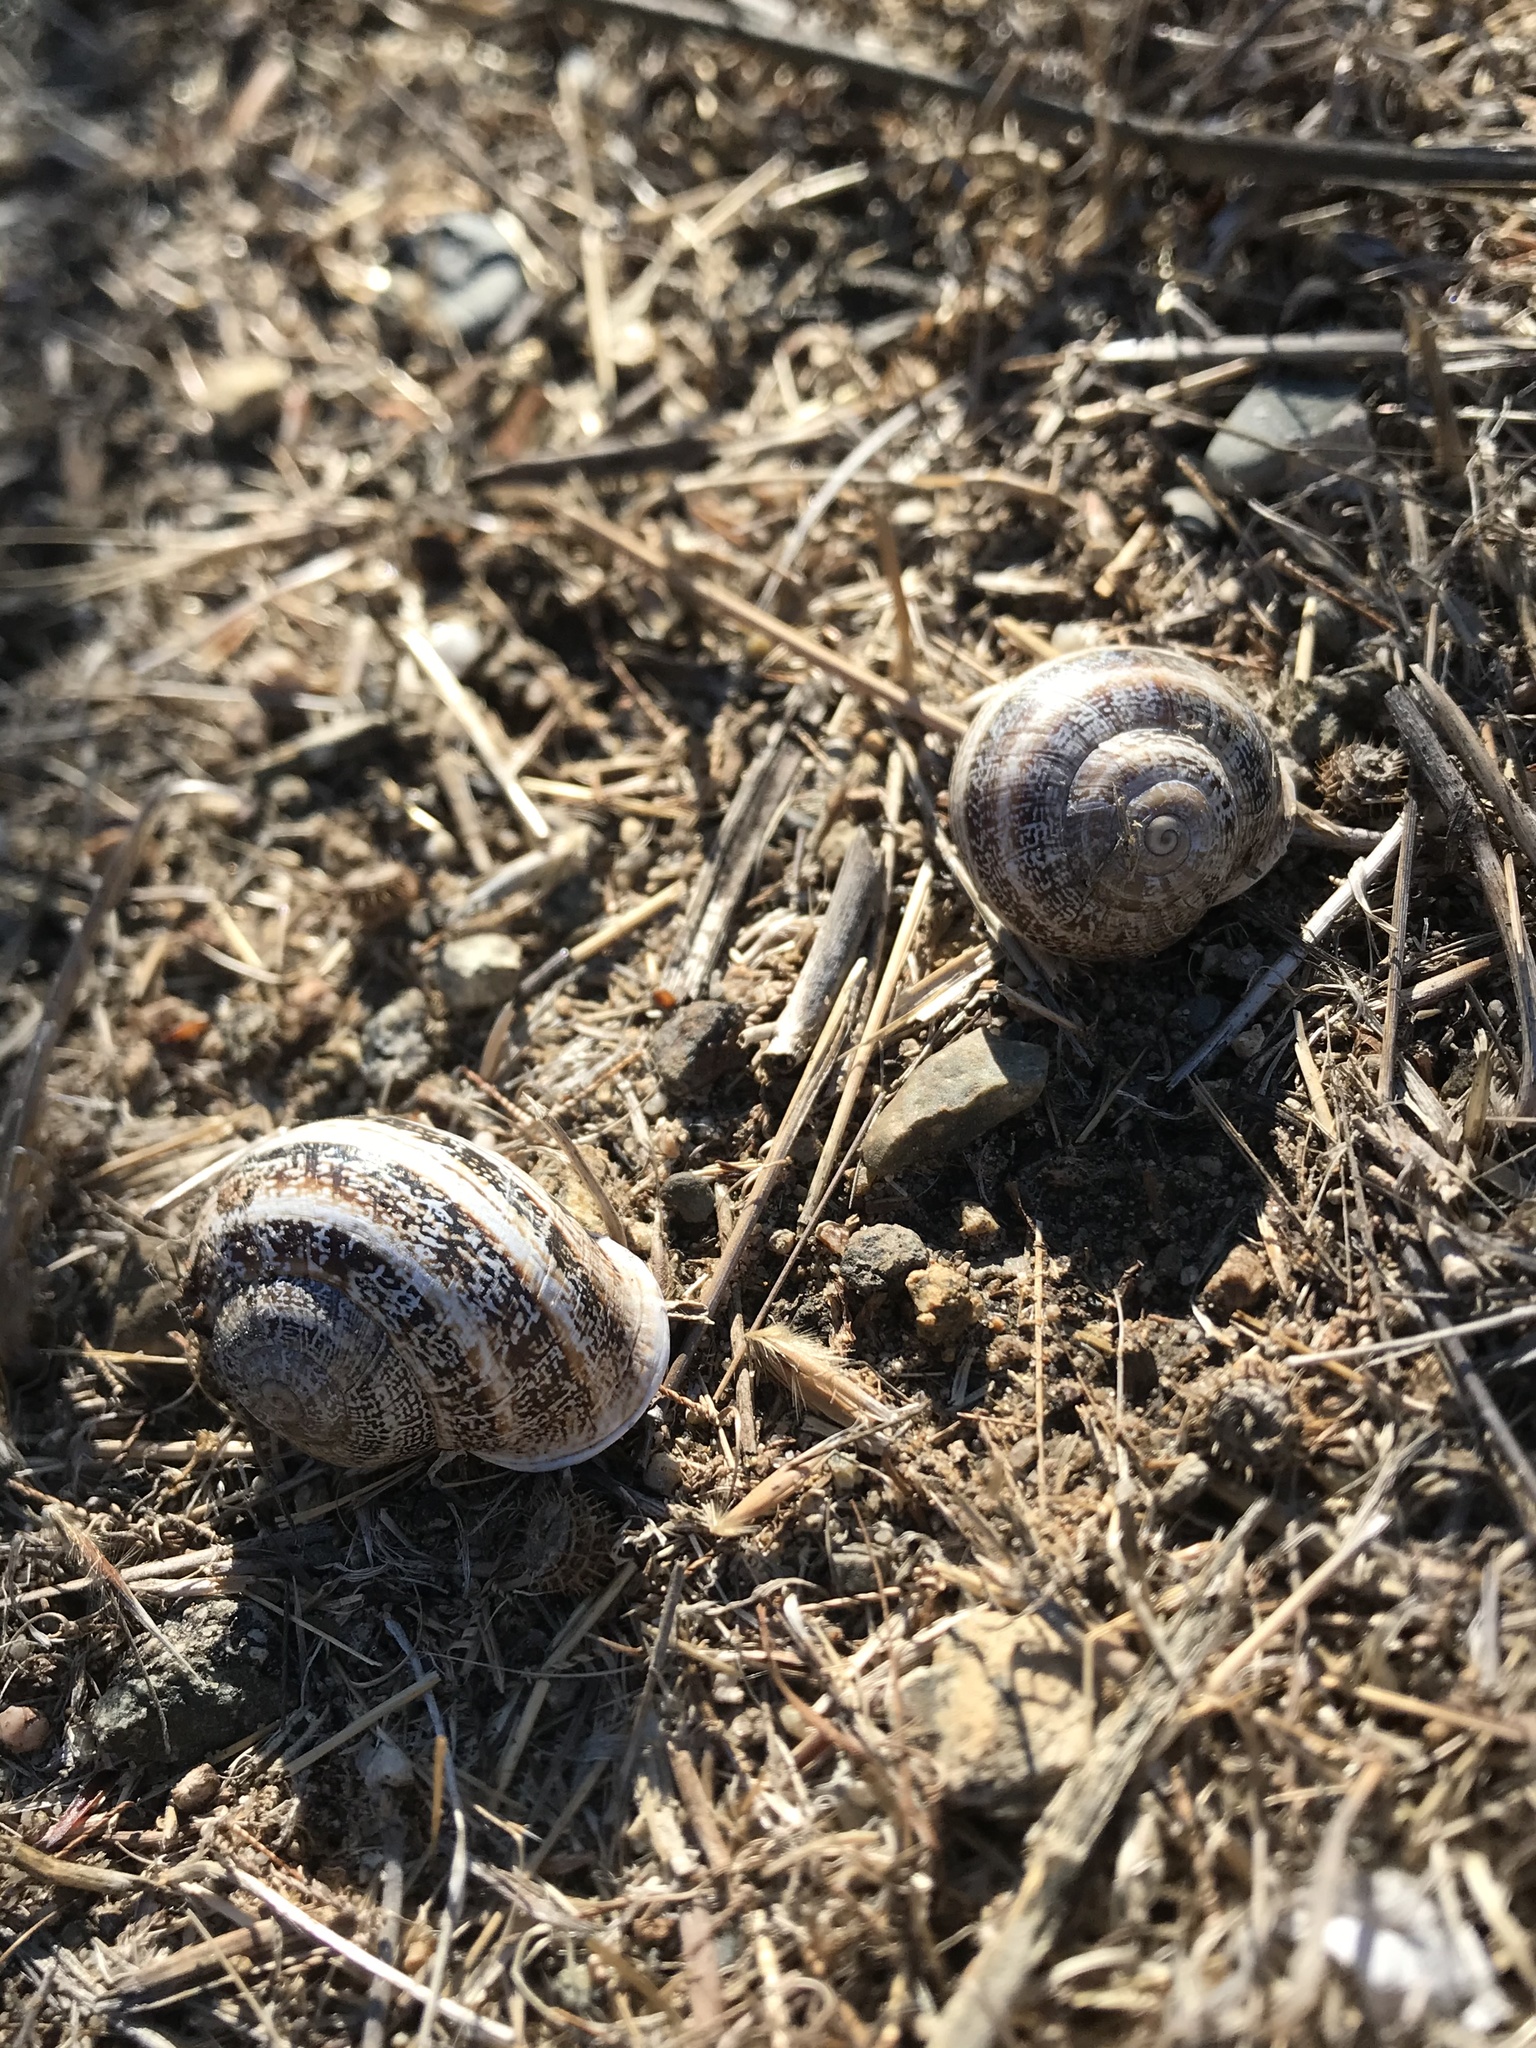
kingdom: Animalia
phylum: Mollusca
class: Gastropoda
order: Stylommatophora
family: Helicidae
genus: Otala
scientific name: Otala lactea
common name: Milk snail
